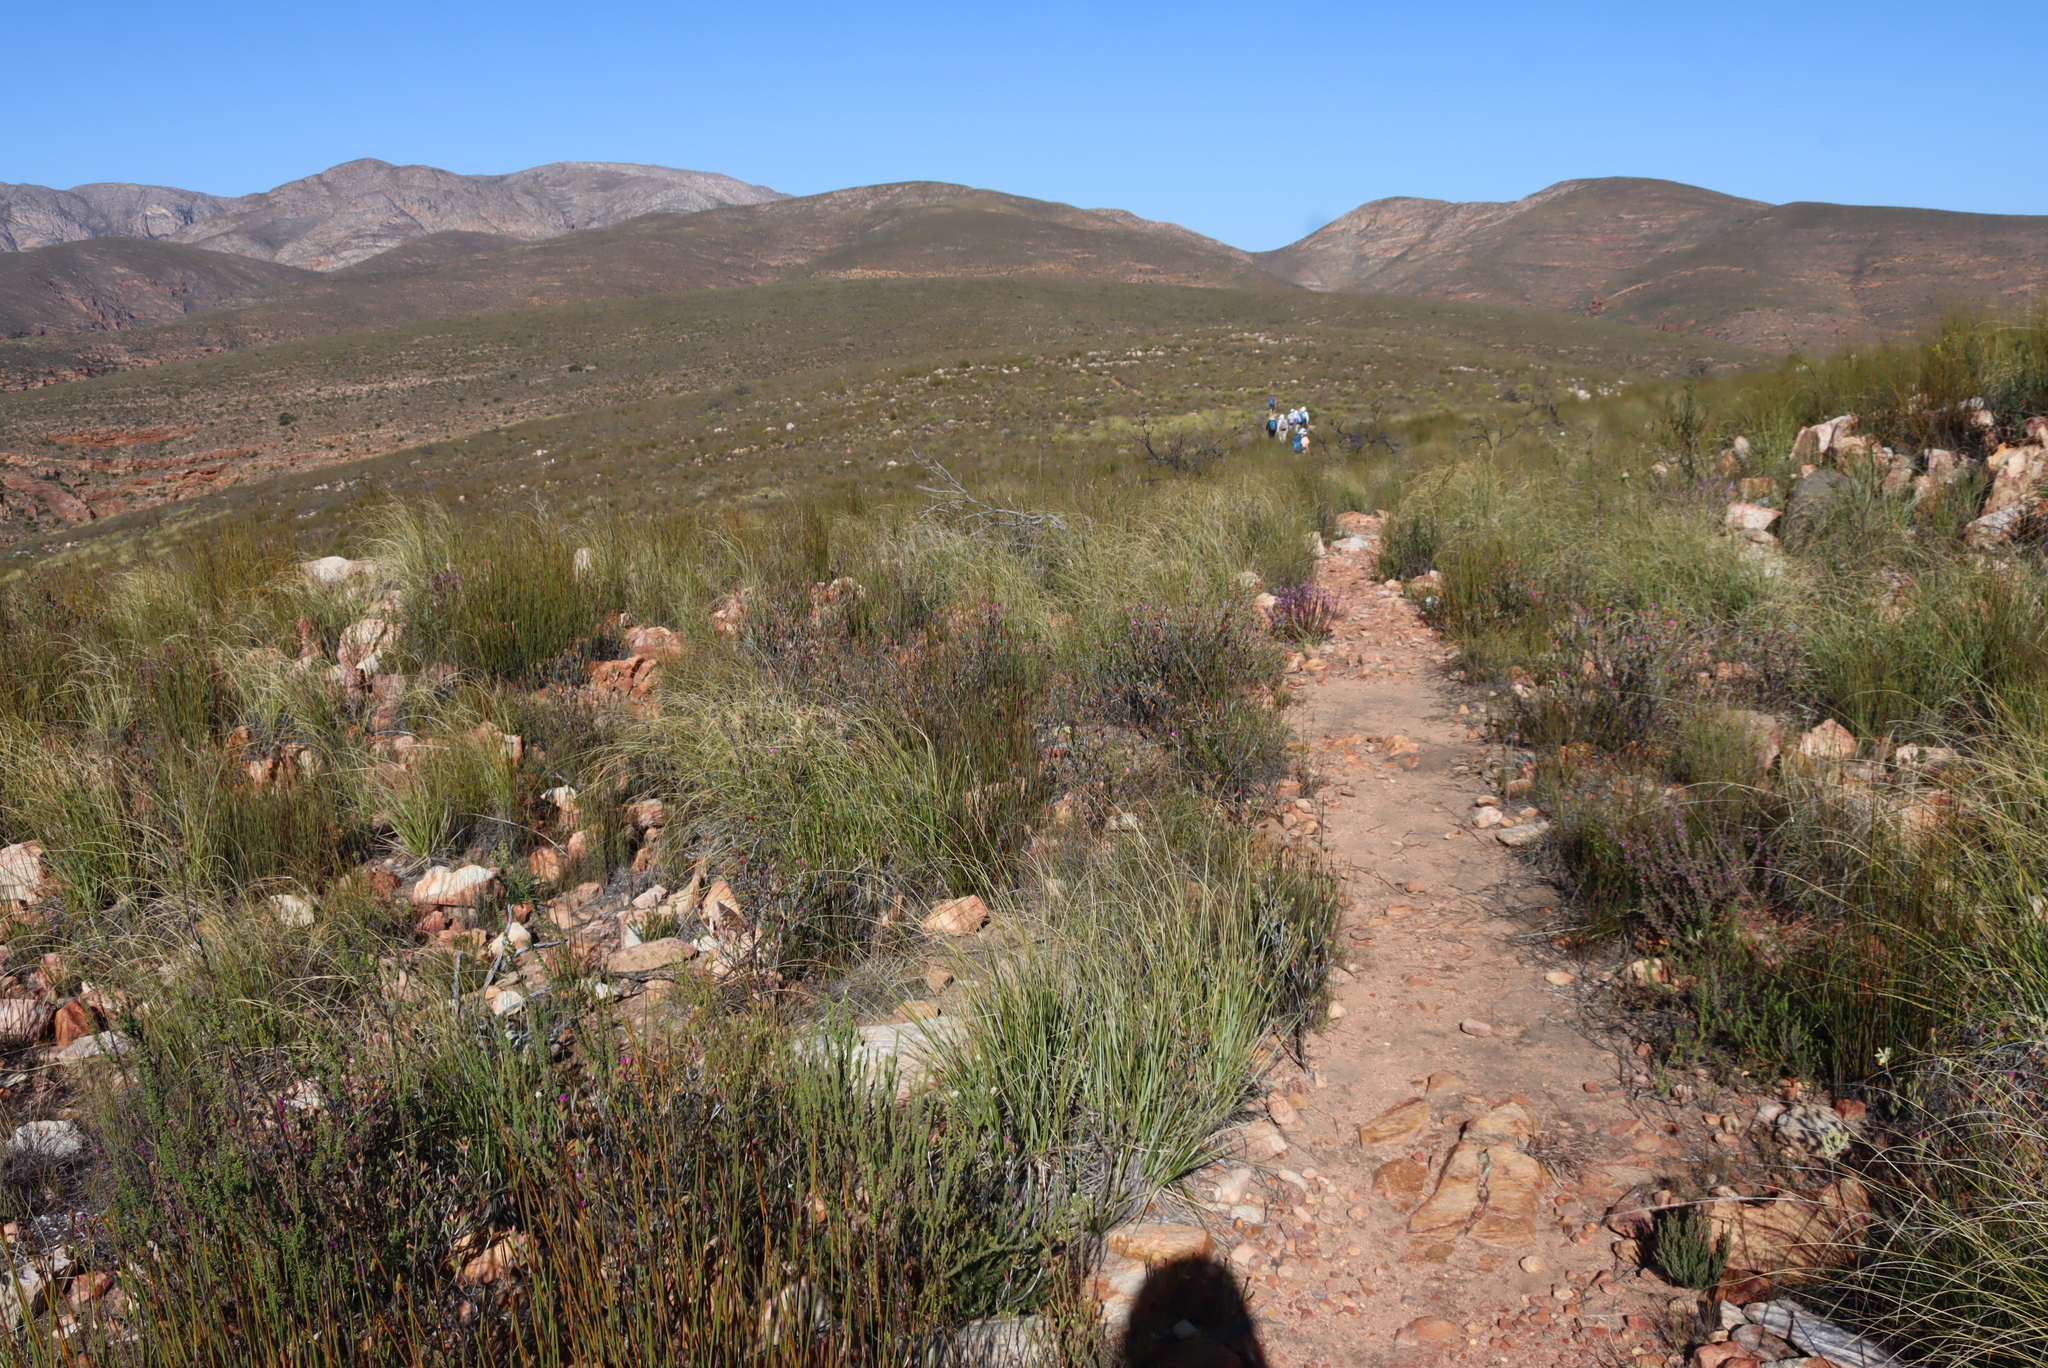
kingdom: Plantae
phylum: Tracheophyta
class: Magnoliopsida
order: Fabales
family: Polygalaceae
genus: Muraltia
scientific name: Muraltia juniperifolia
